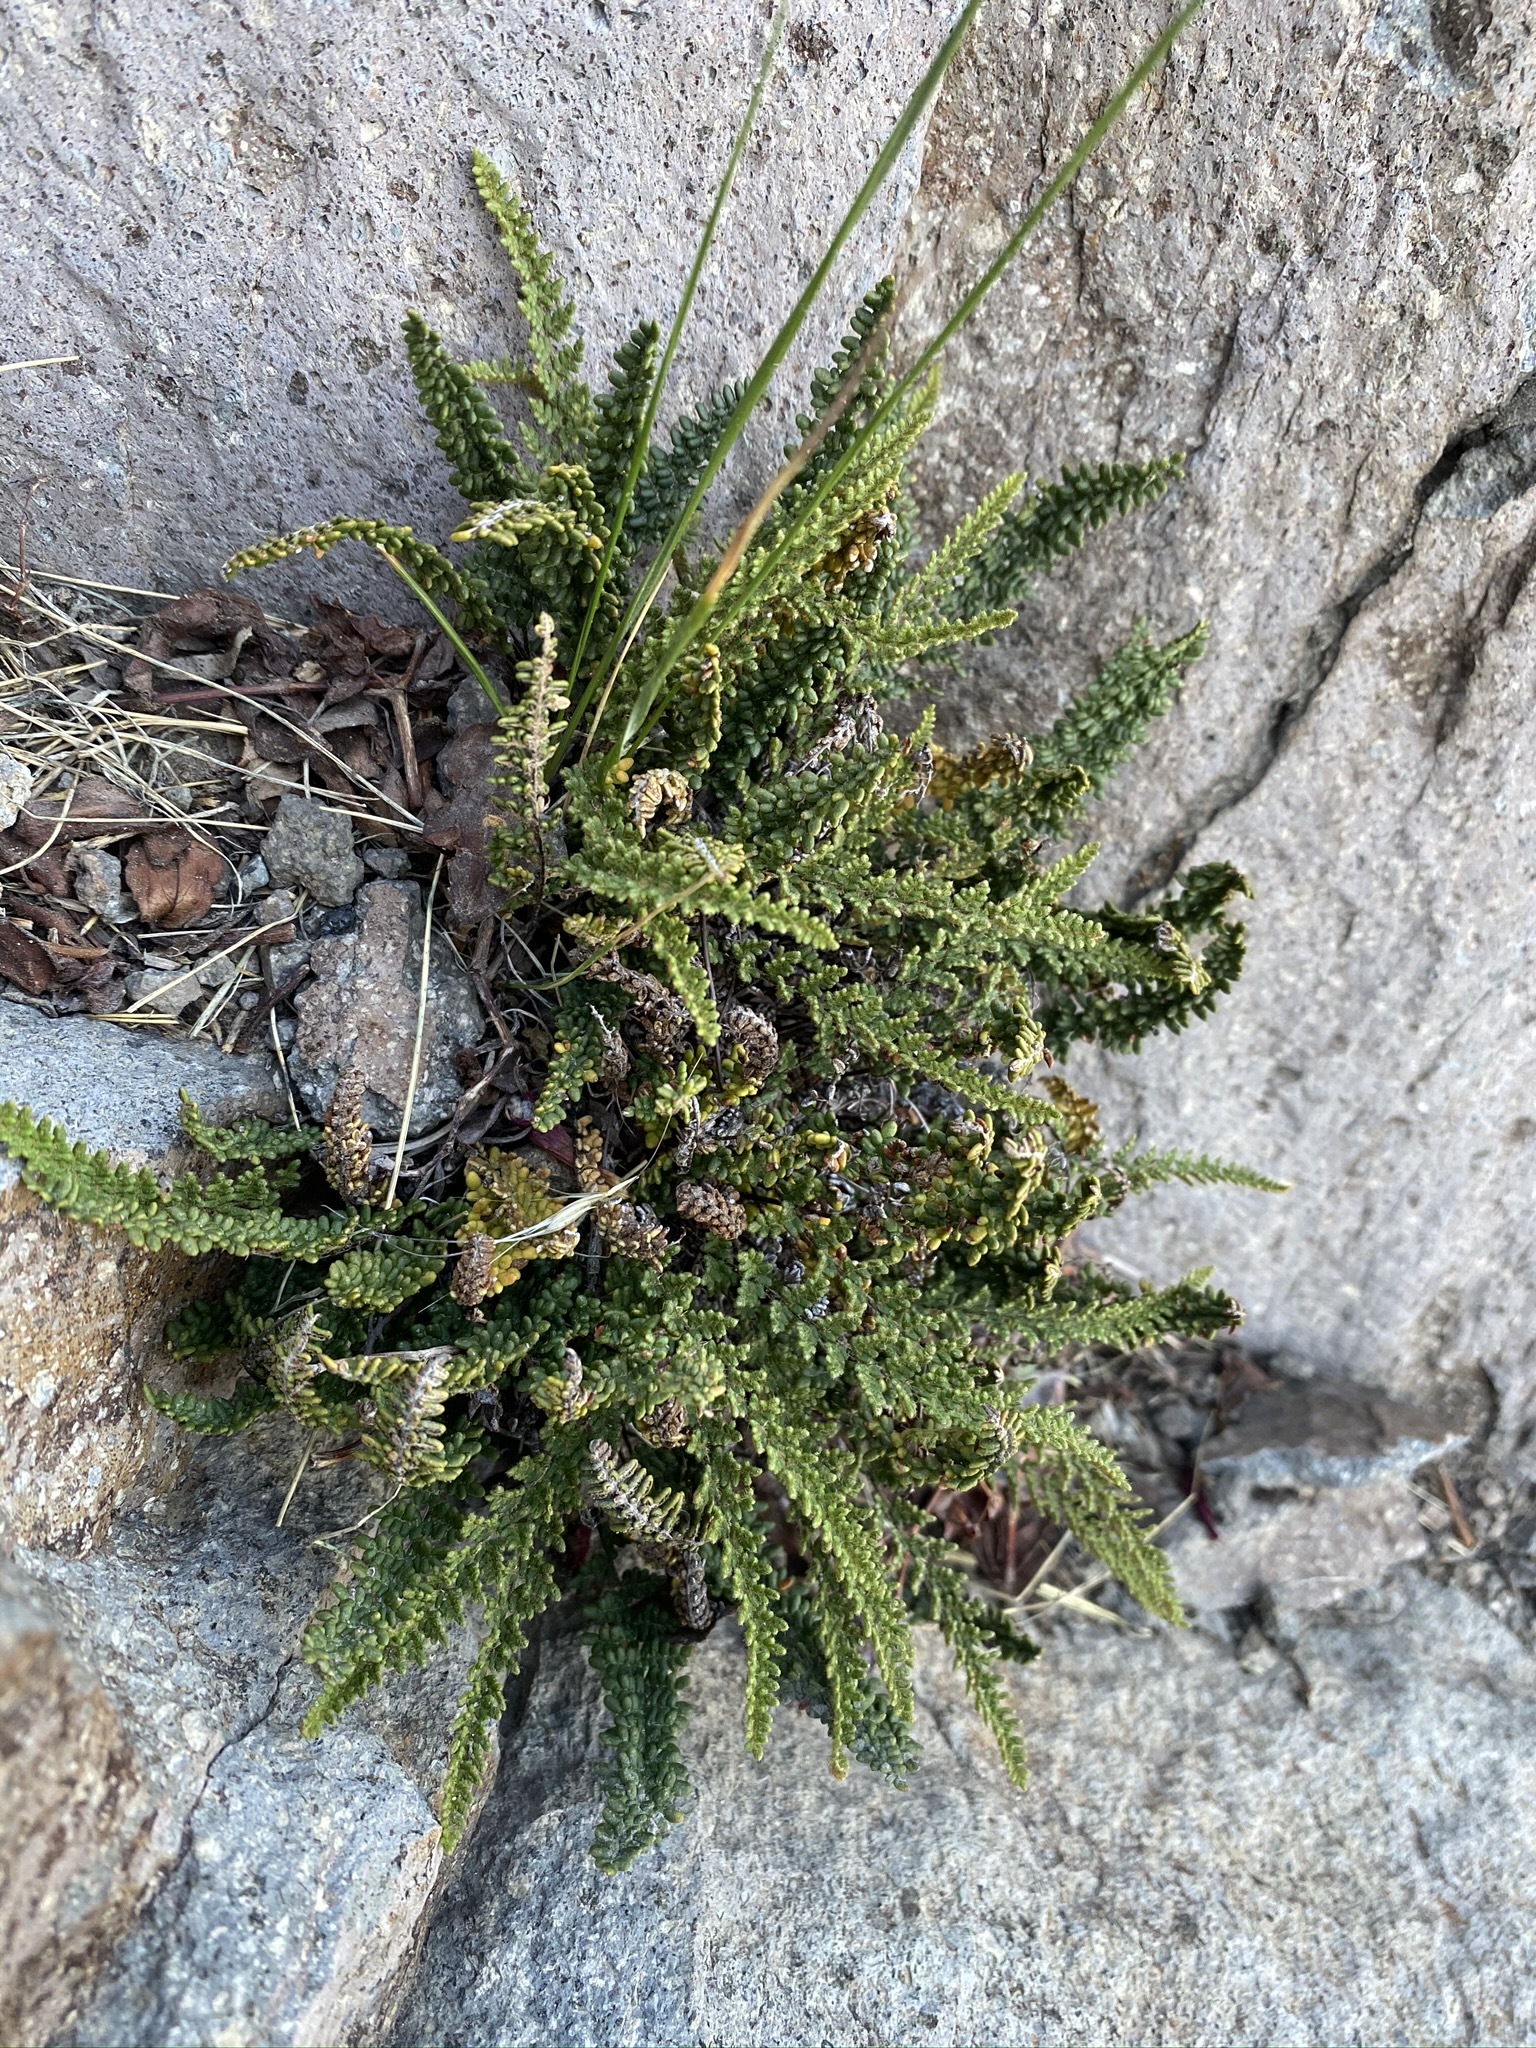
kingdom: Plantae
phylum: Tracheophyta
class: Polypodiopsida
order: Polypodiales
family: Pteridaceae
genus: Myriopteris
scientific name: Myriopteris gracillima
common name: Lace fern
